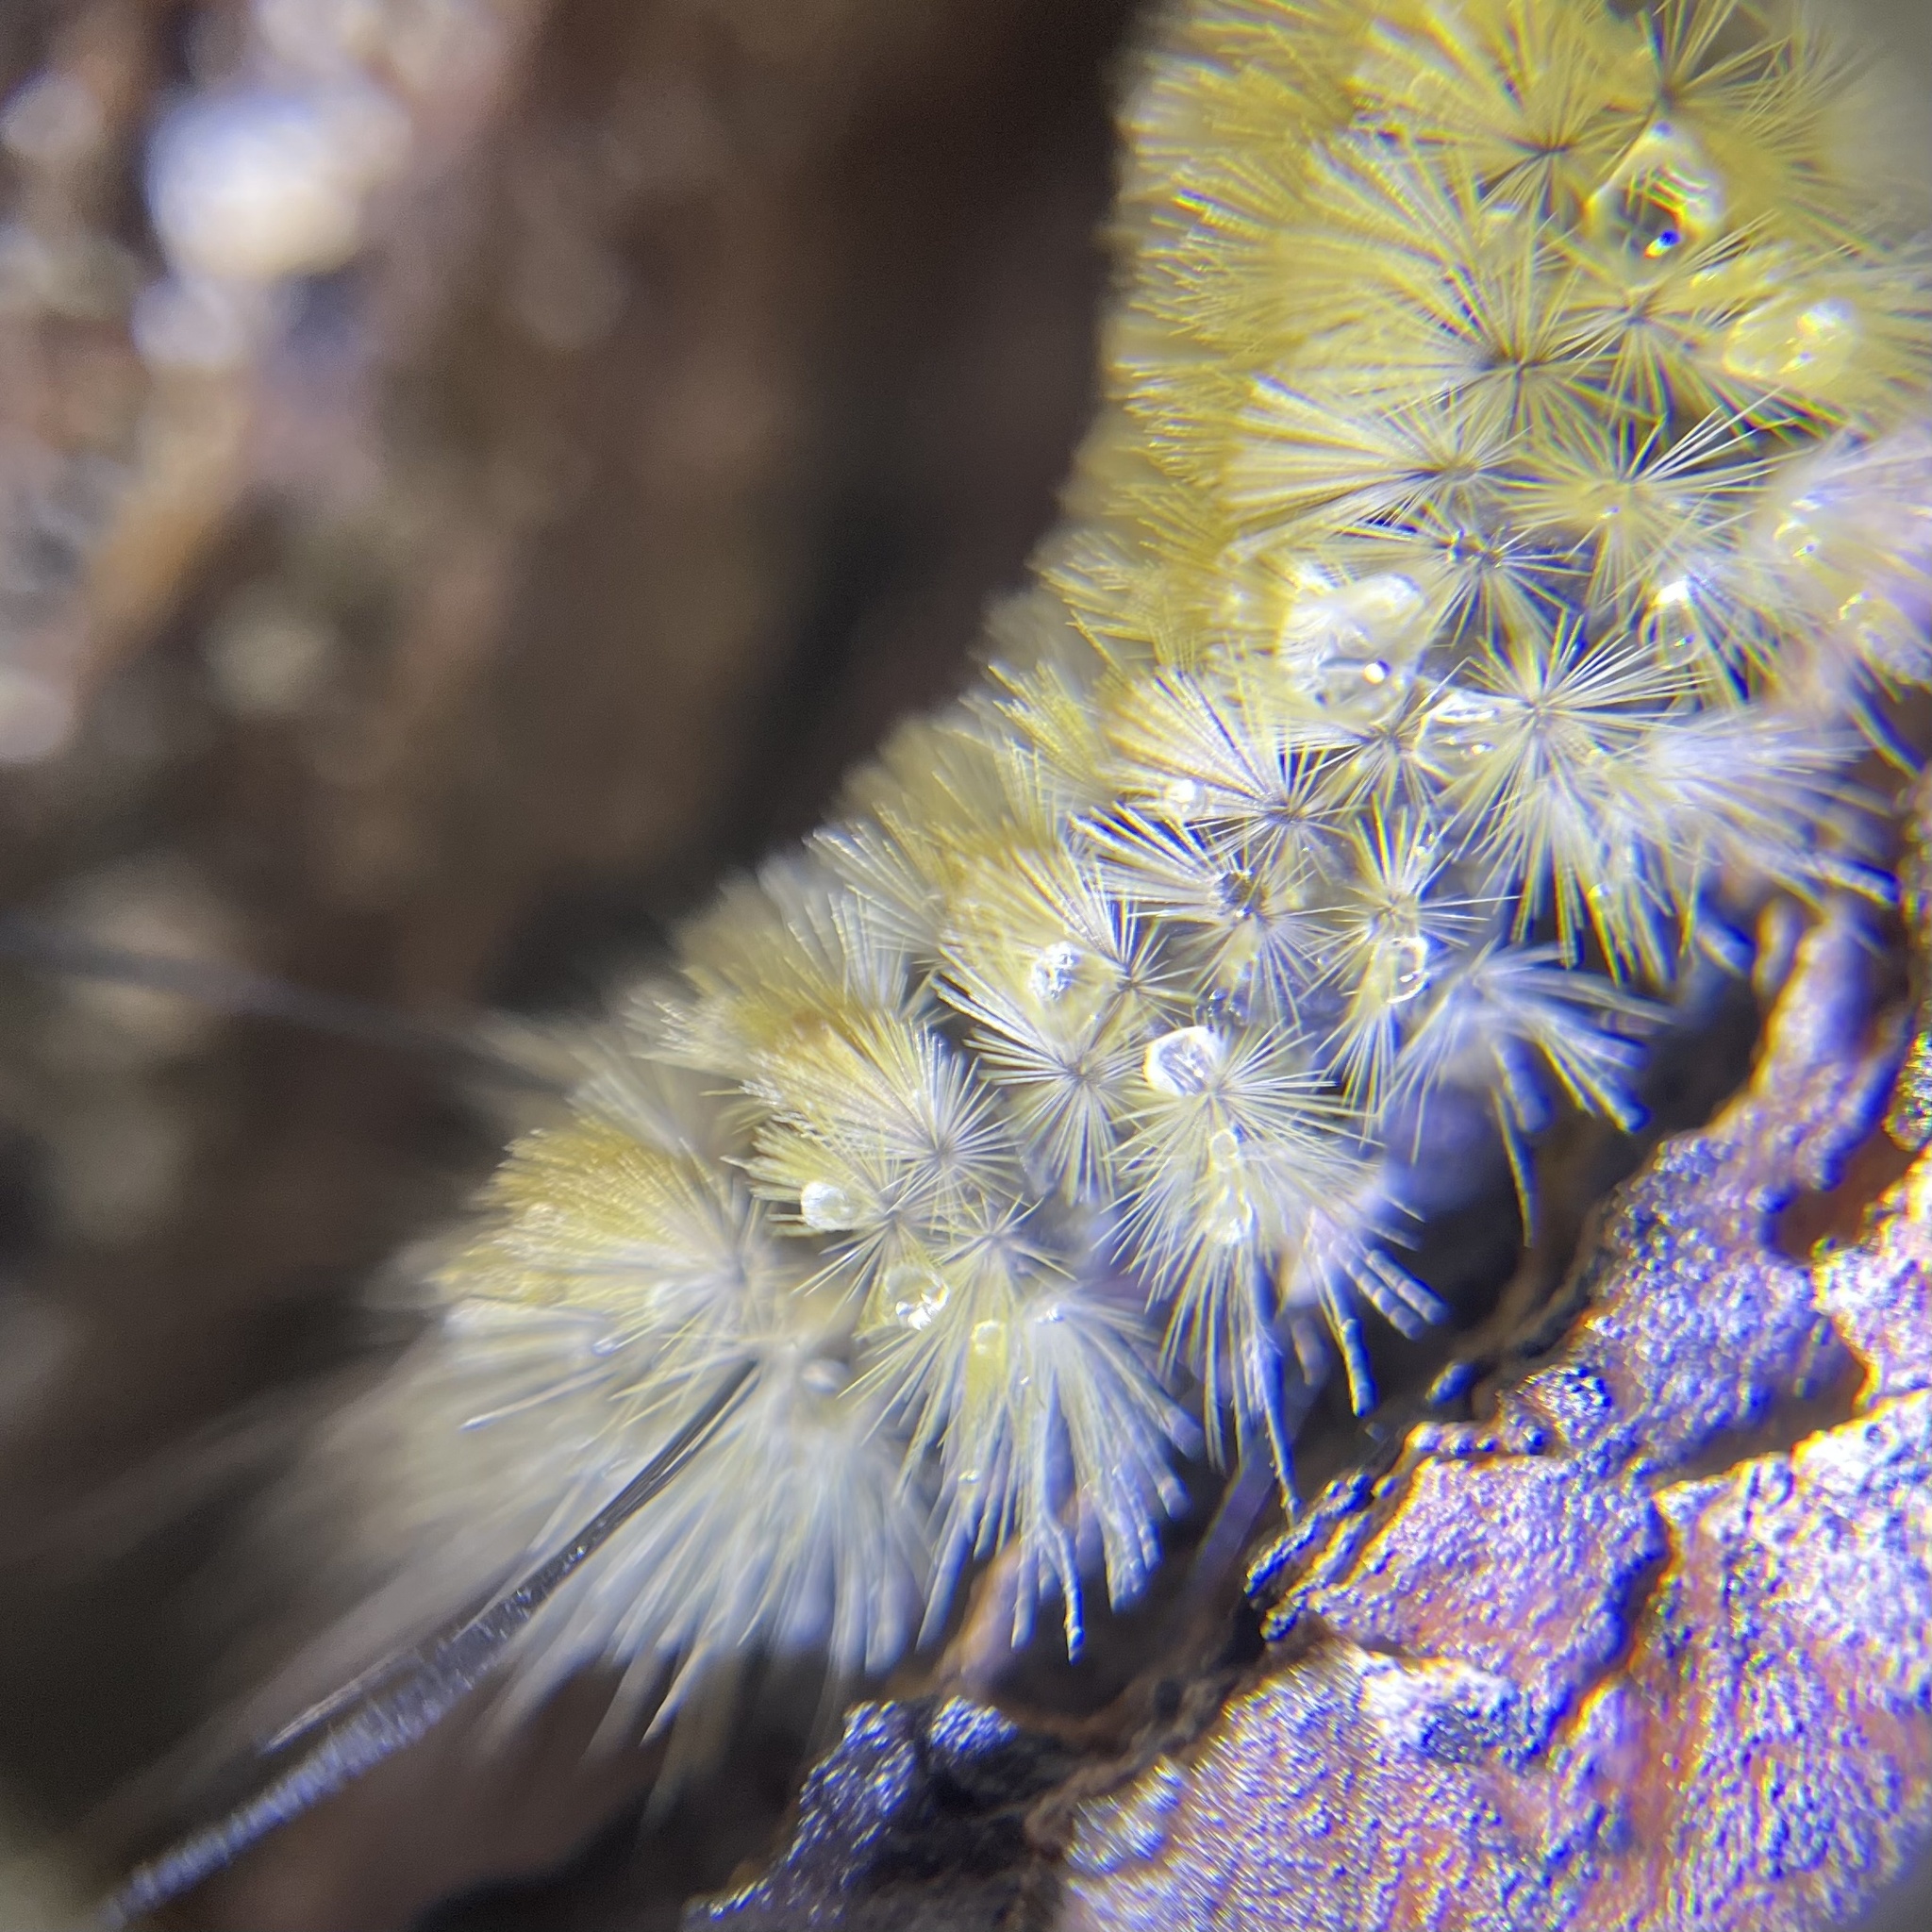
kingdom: Animalia
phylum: Arthropoda
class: Insecta
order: Lepidoptera
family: Erebidae
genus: Halysidota
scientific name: Halysidota tessellaris
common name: Banded tussock moth
